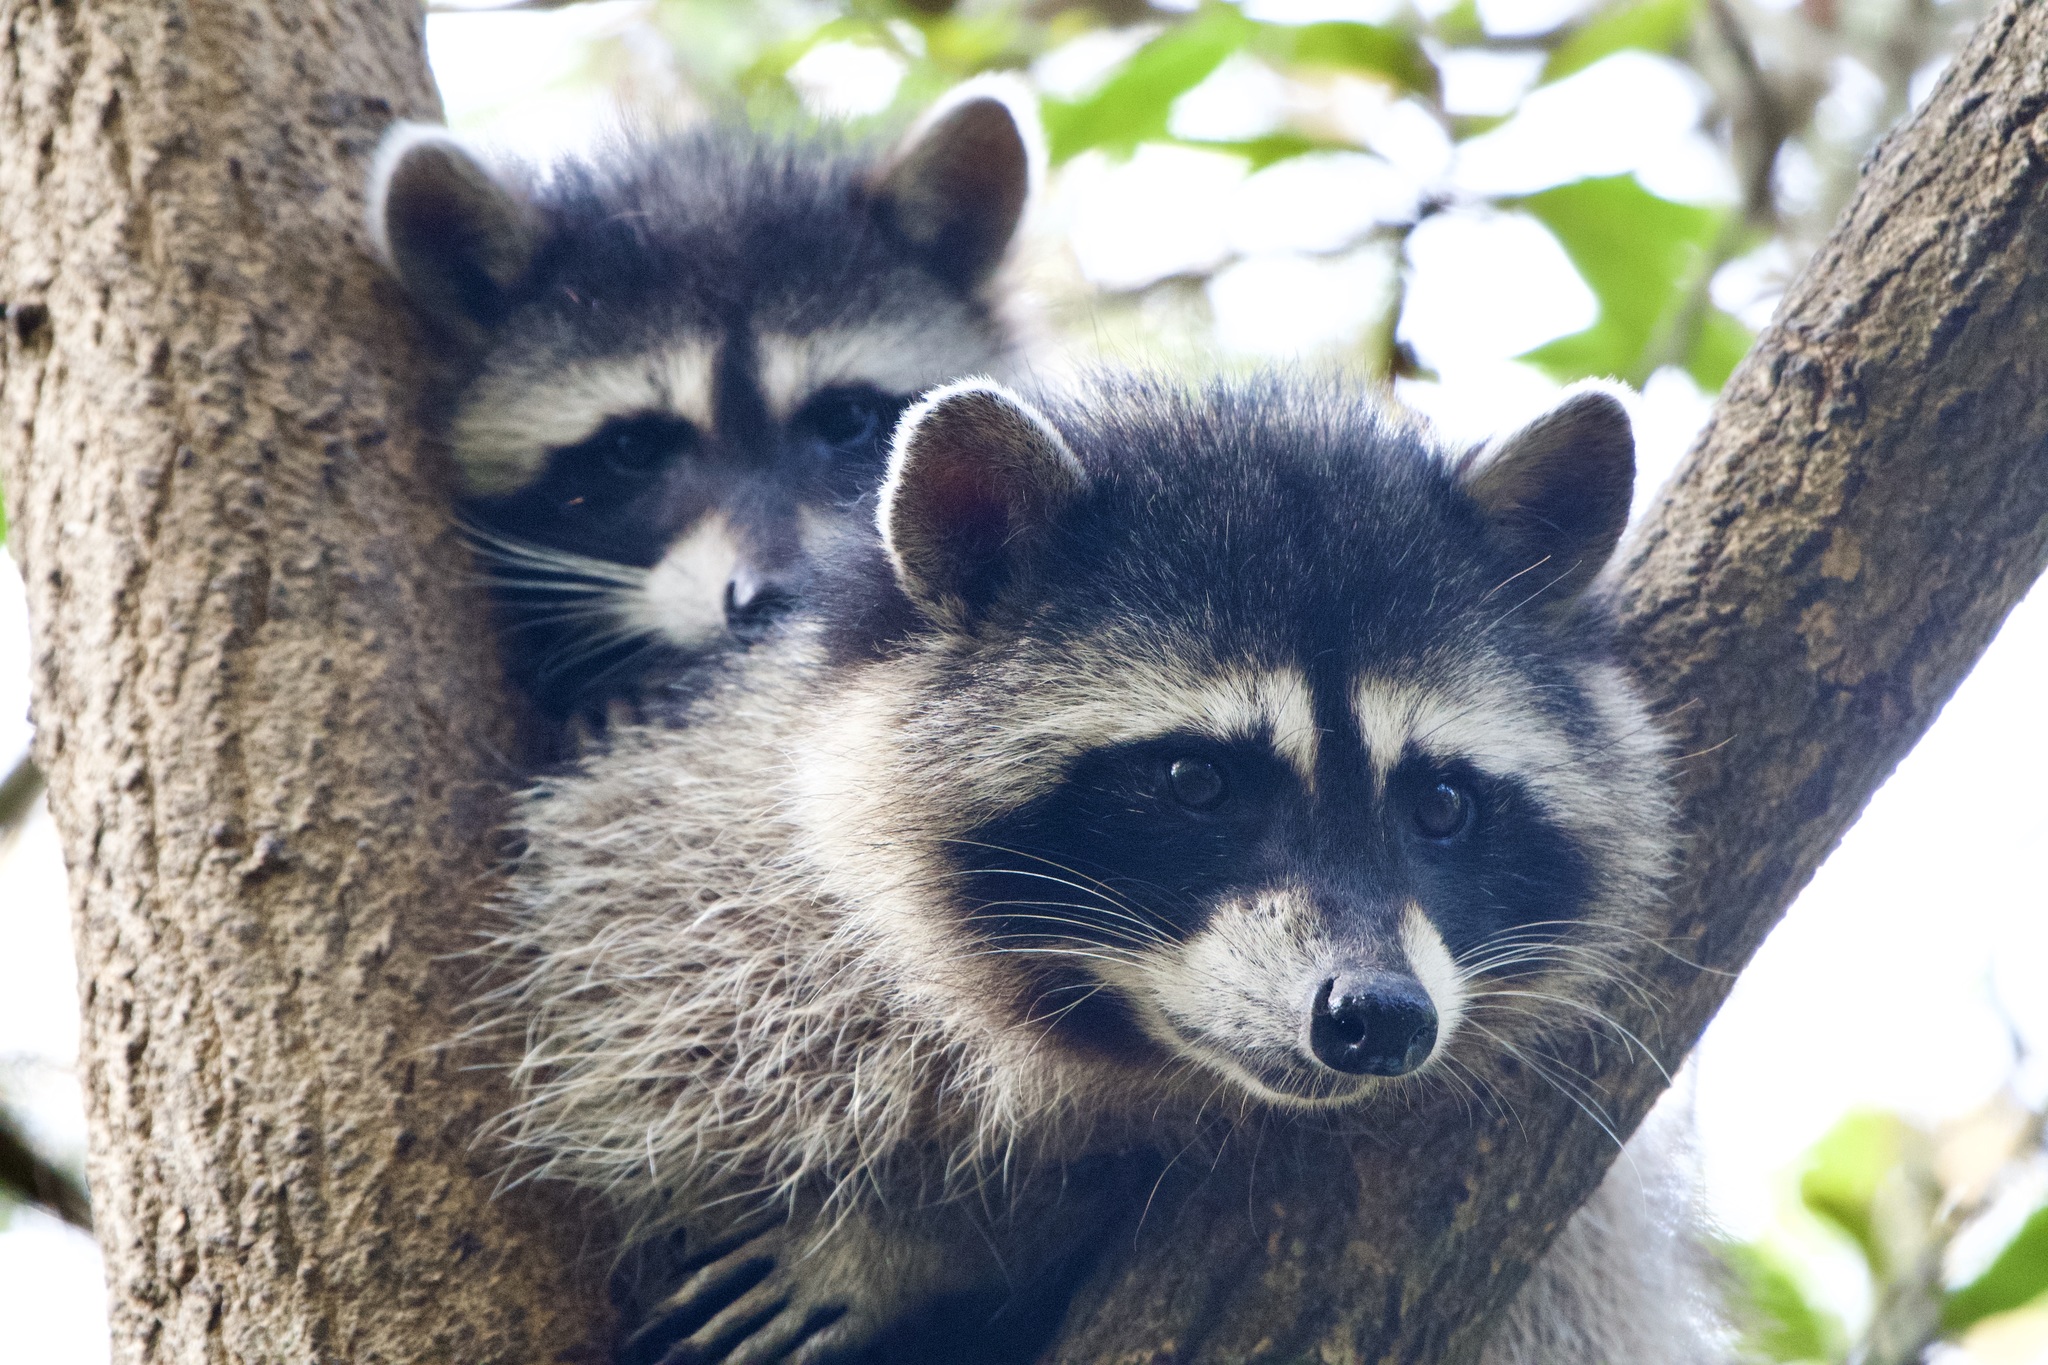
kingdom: Animalia
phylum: Chordata
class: Mammalia
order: Carnivora
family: Procyonidae
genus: Procyon
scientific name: Procyon lotor
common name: Raccoon
